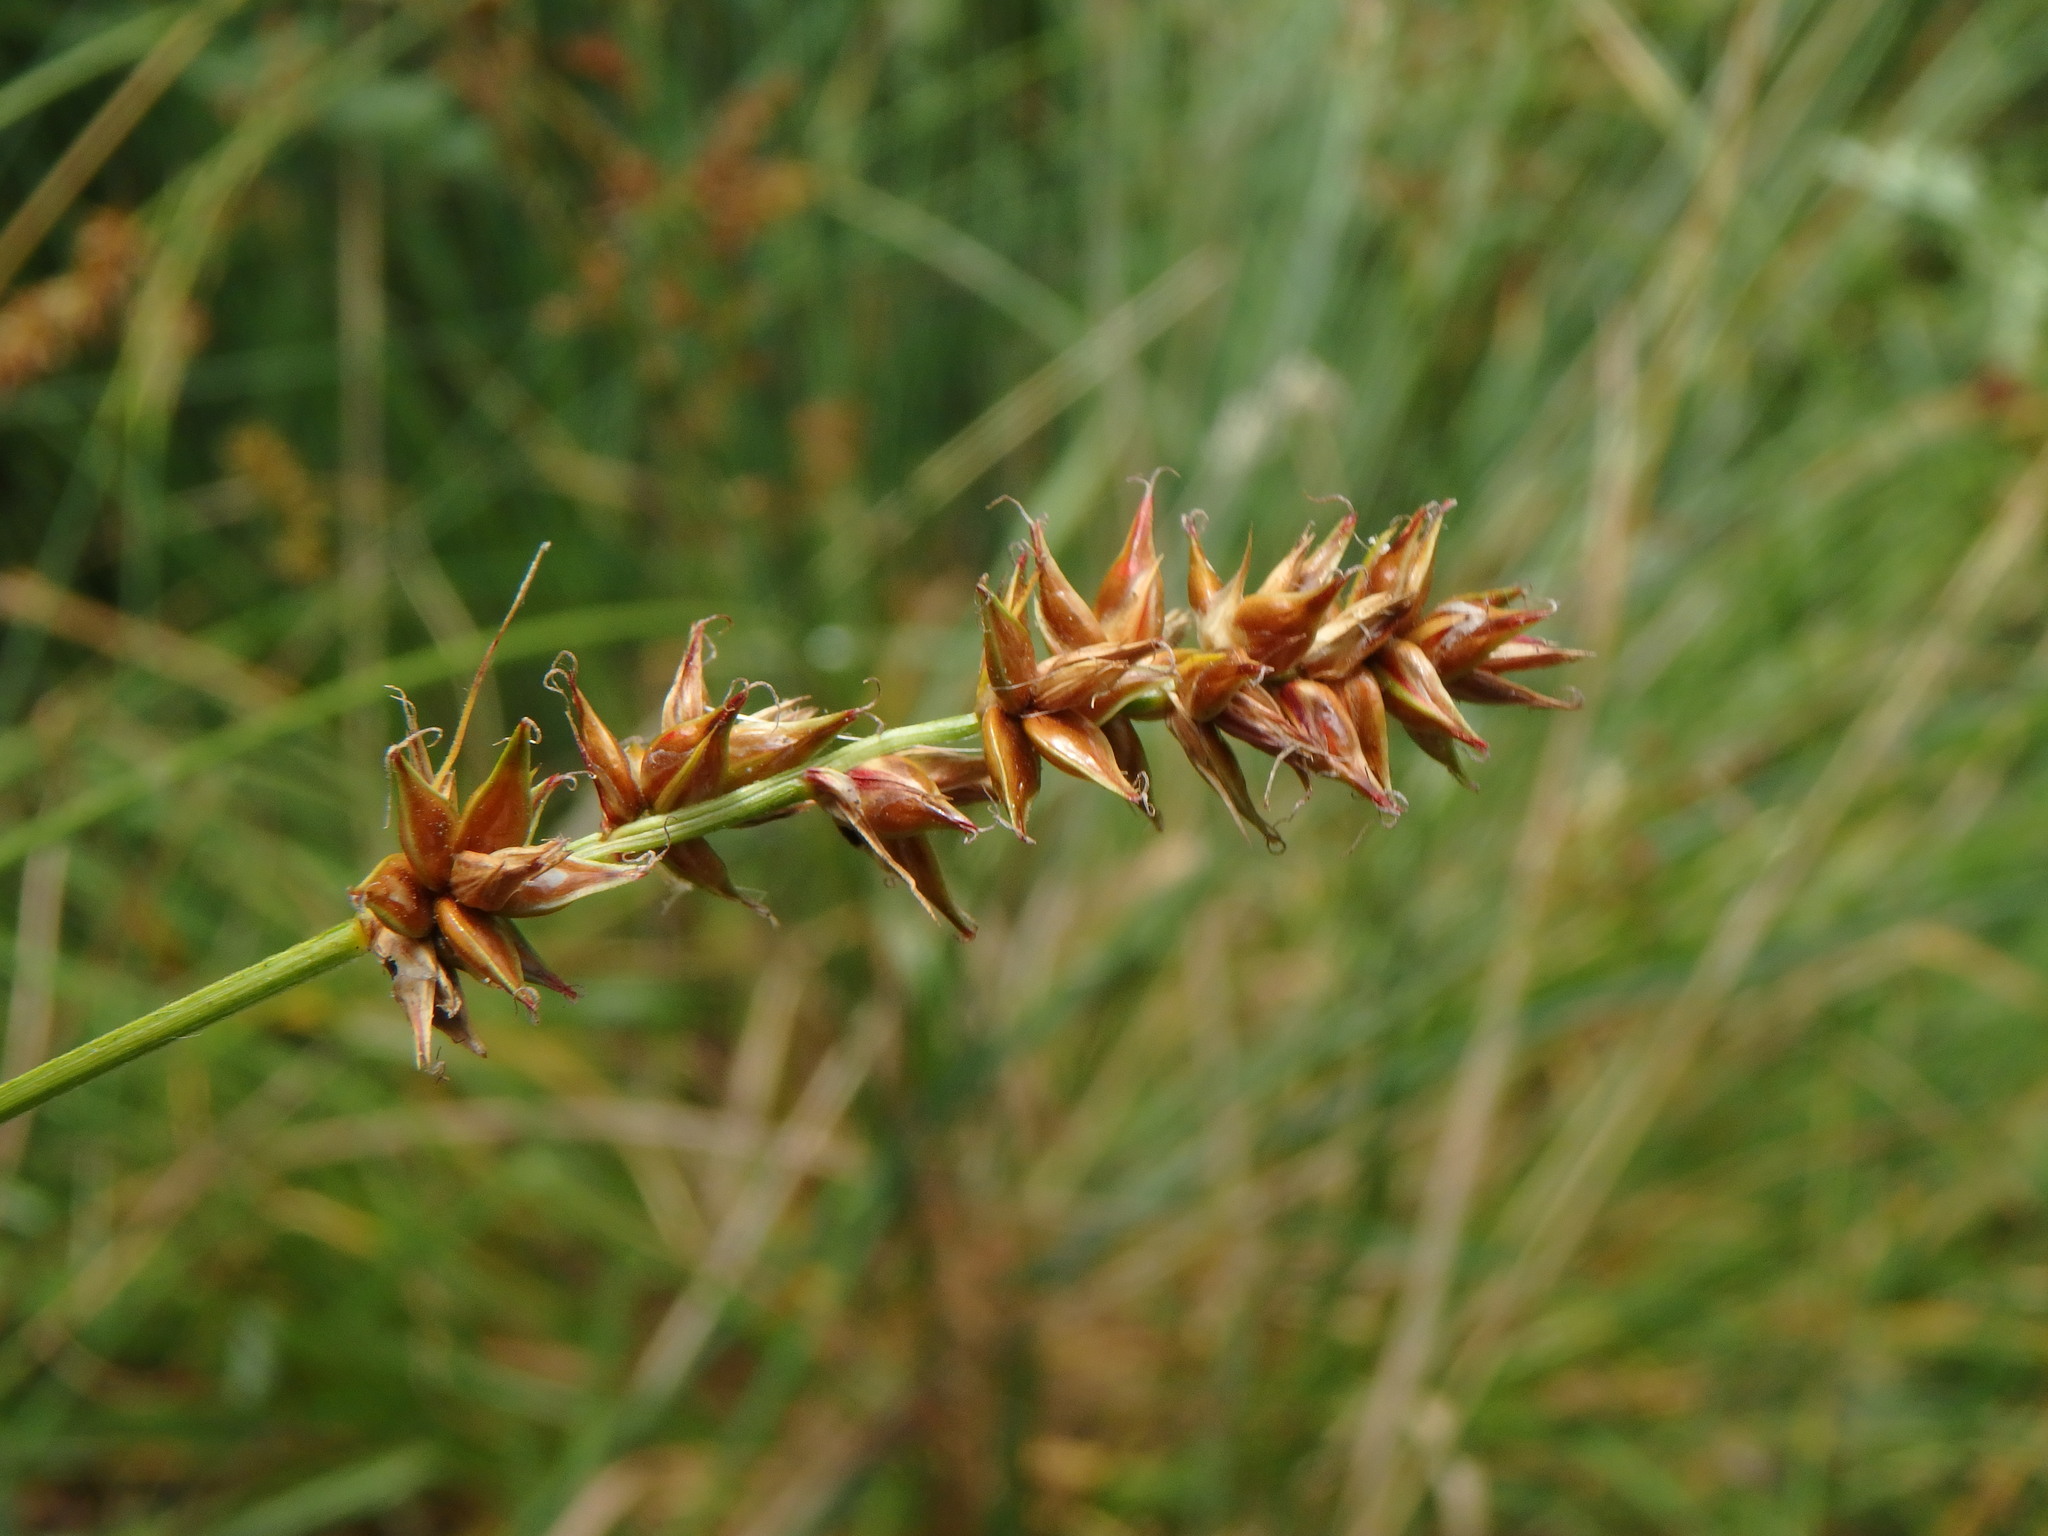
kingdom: Plantae
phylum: Tracheophyta
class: Liliopsida
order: Poales
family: Cyperaceae
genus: Carex
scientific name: Carex spicata
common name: Spiked sedge
